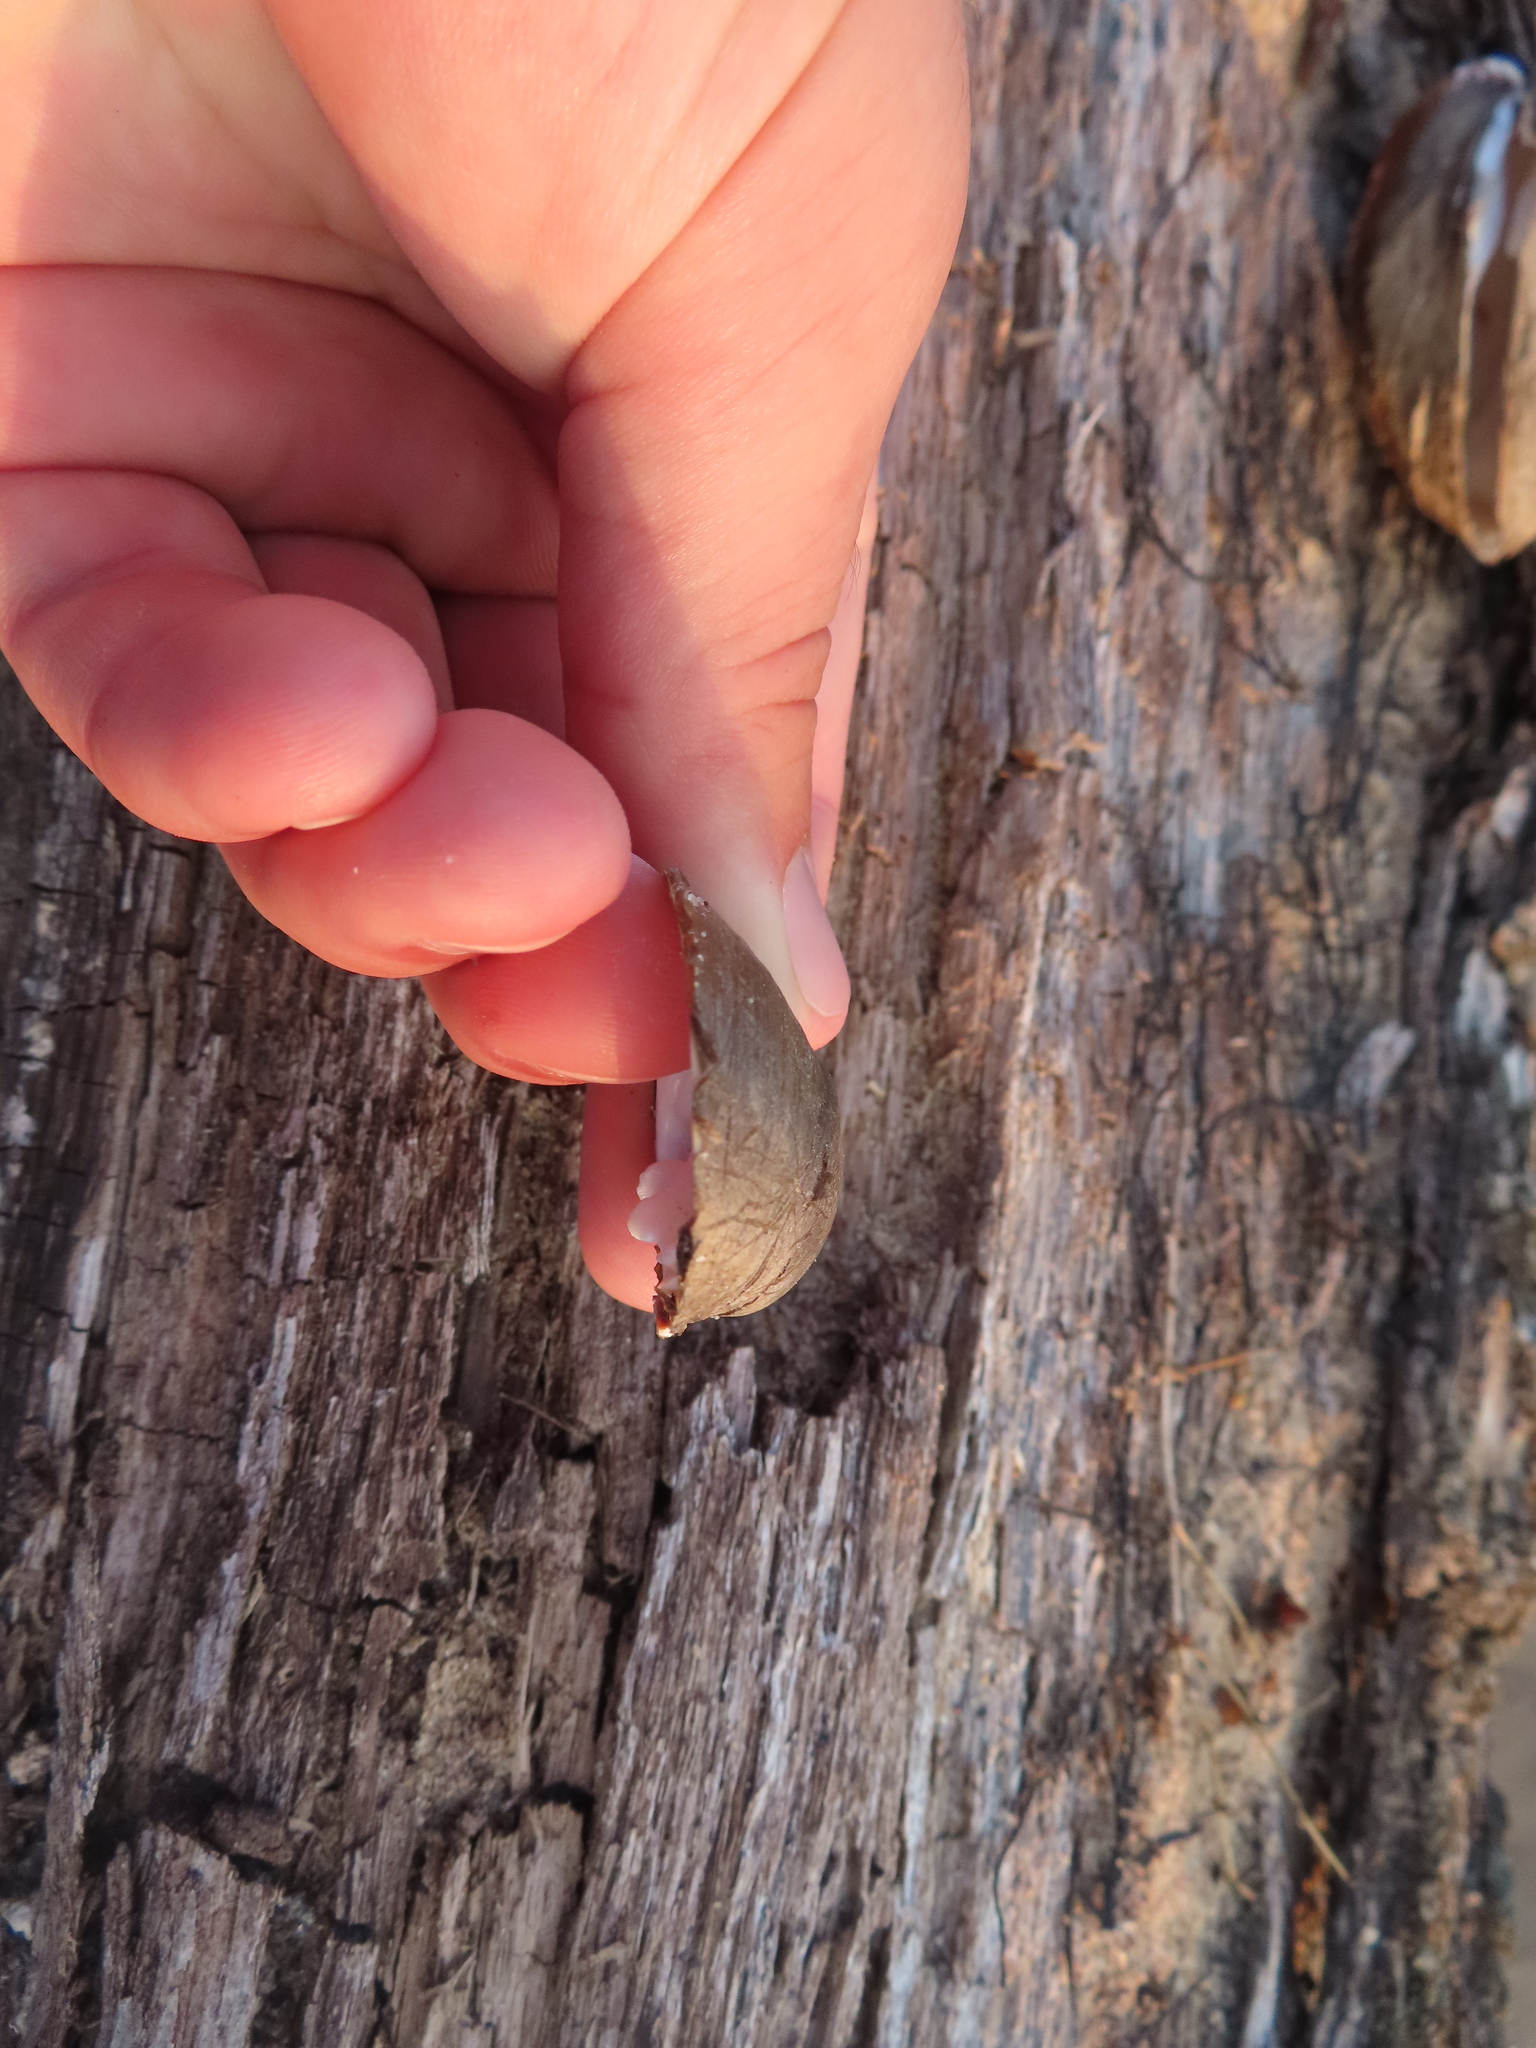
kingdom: Animalia
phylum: Mollusca
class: Bivalvia
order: Unionida
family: Unionidae
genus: Lampsilis
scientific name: Lampsilis higginsii
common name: Higgins eye
